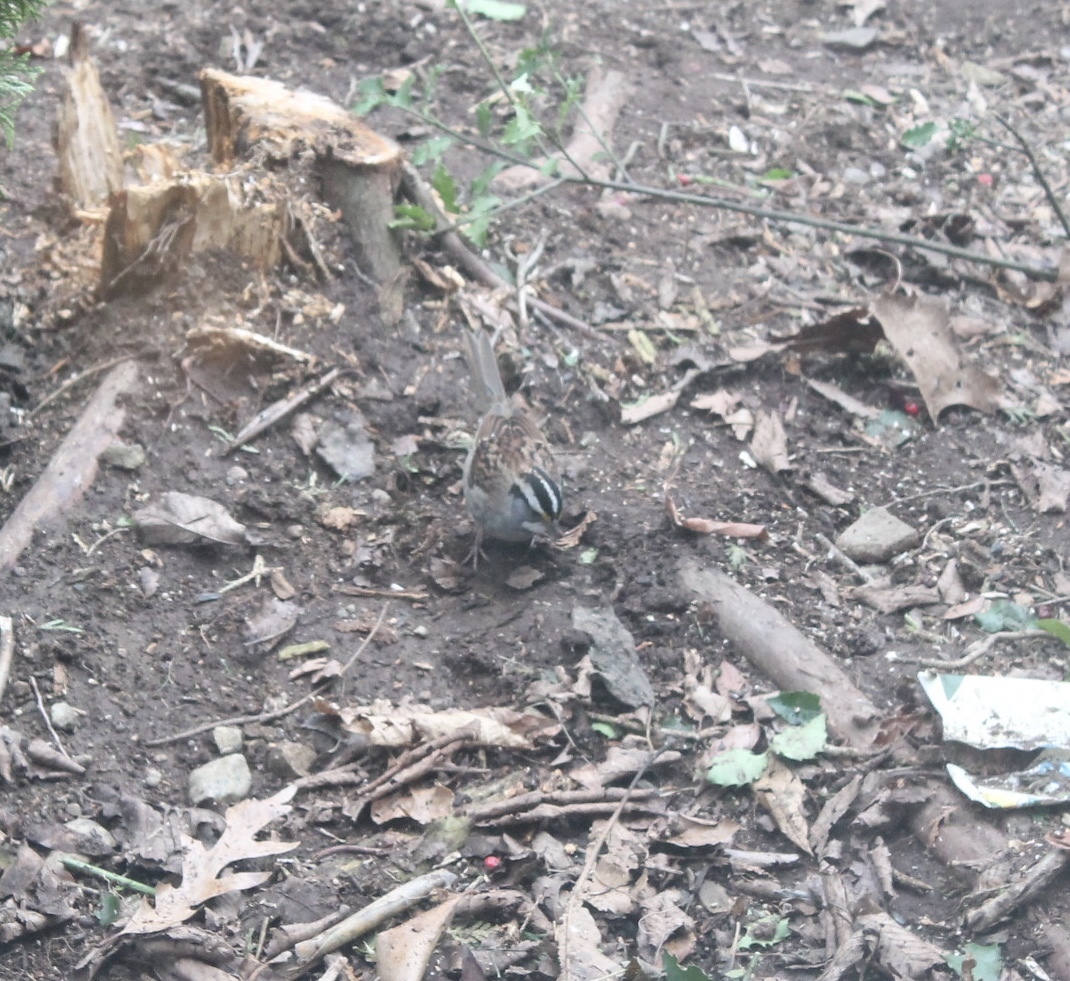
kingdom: Animalia
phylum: Chordata
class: Aves
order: Passeriformes
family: Passerellidae
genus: Zonotrichia
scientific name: Zonotrichia albicollis
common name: White-throated sparrow
